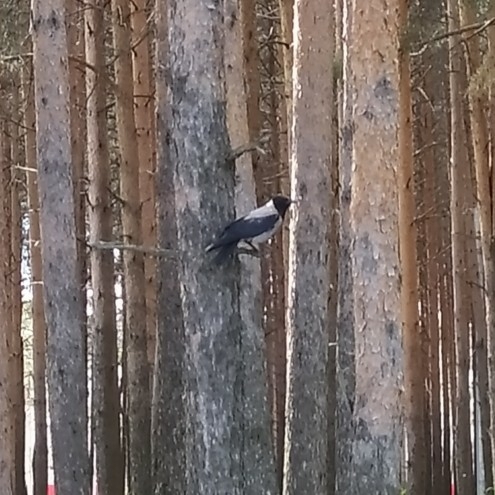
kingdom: Animalia
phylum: Chordata
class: Aves
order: Passeriformes
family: Corvidae
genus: Corvus
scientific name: Corvus cornix
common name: Hooded crow
